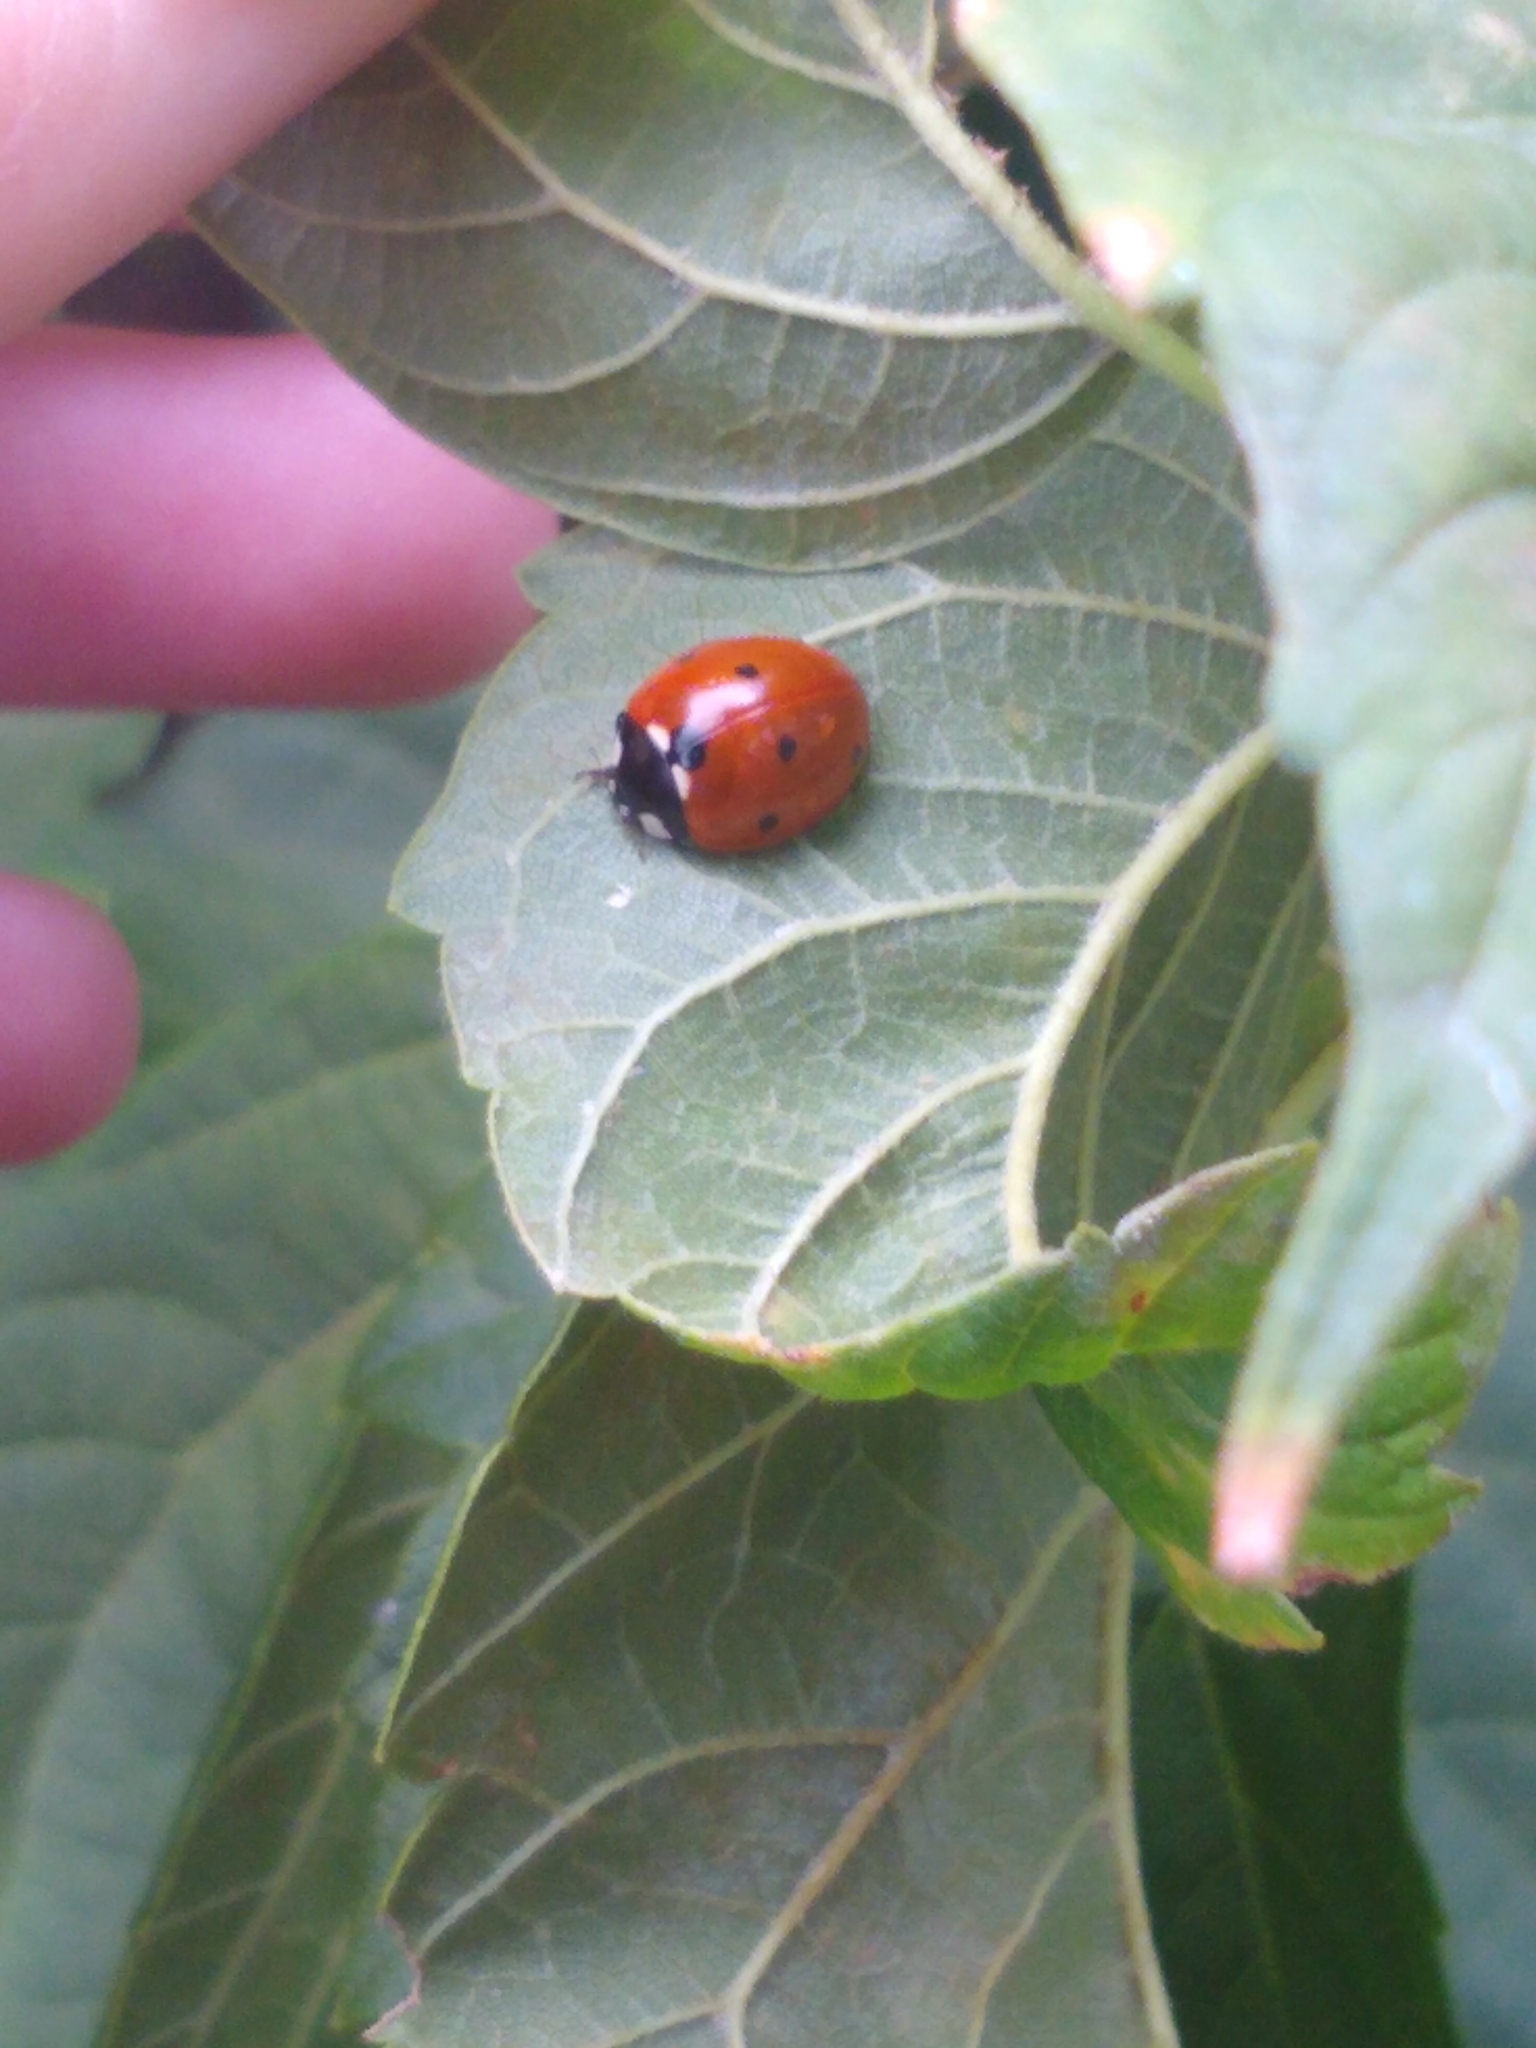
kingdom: Animalia
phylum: Arthropoda
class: Insecta
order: Coleoptera
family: Coccinellidae
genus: Coccinella
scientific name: Coccinella septempunctata
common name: Sevenspotted lady beetle
